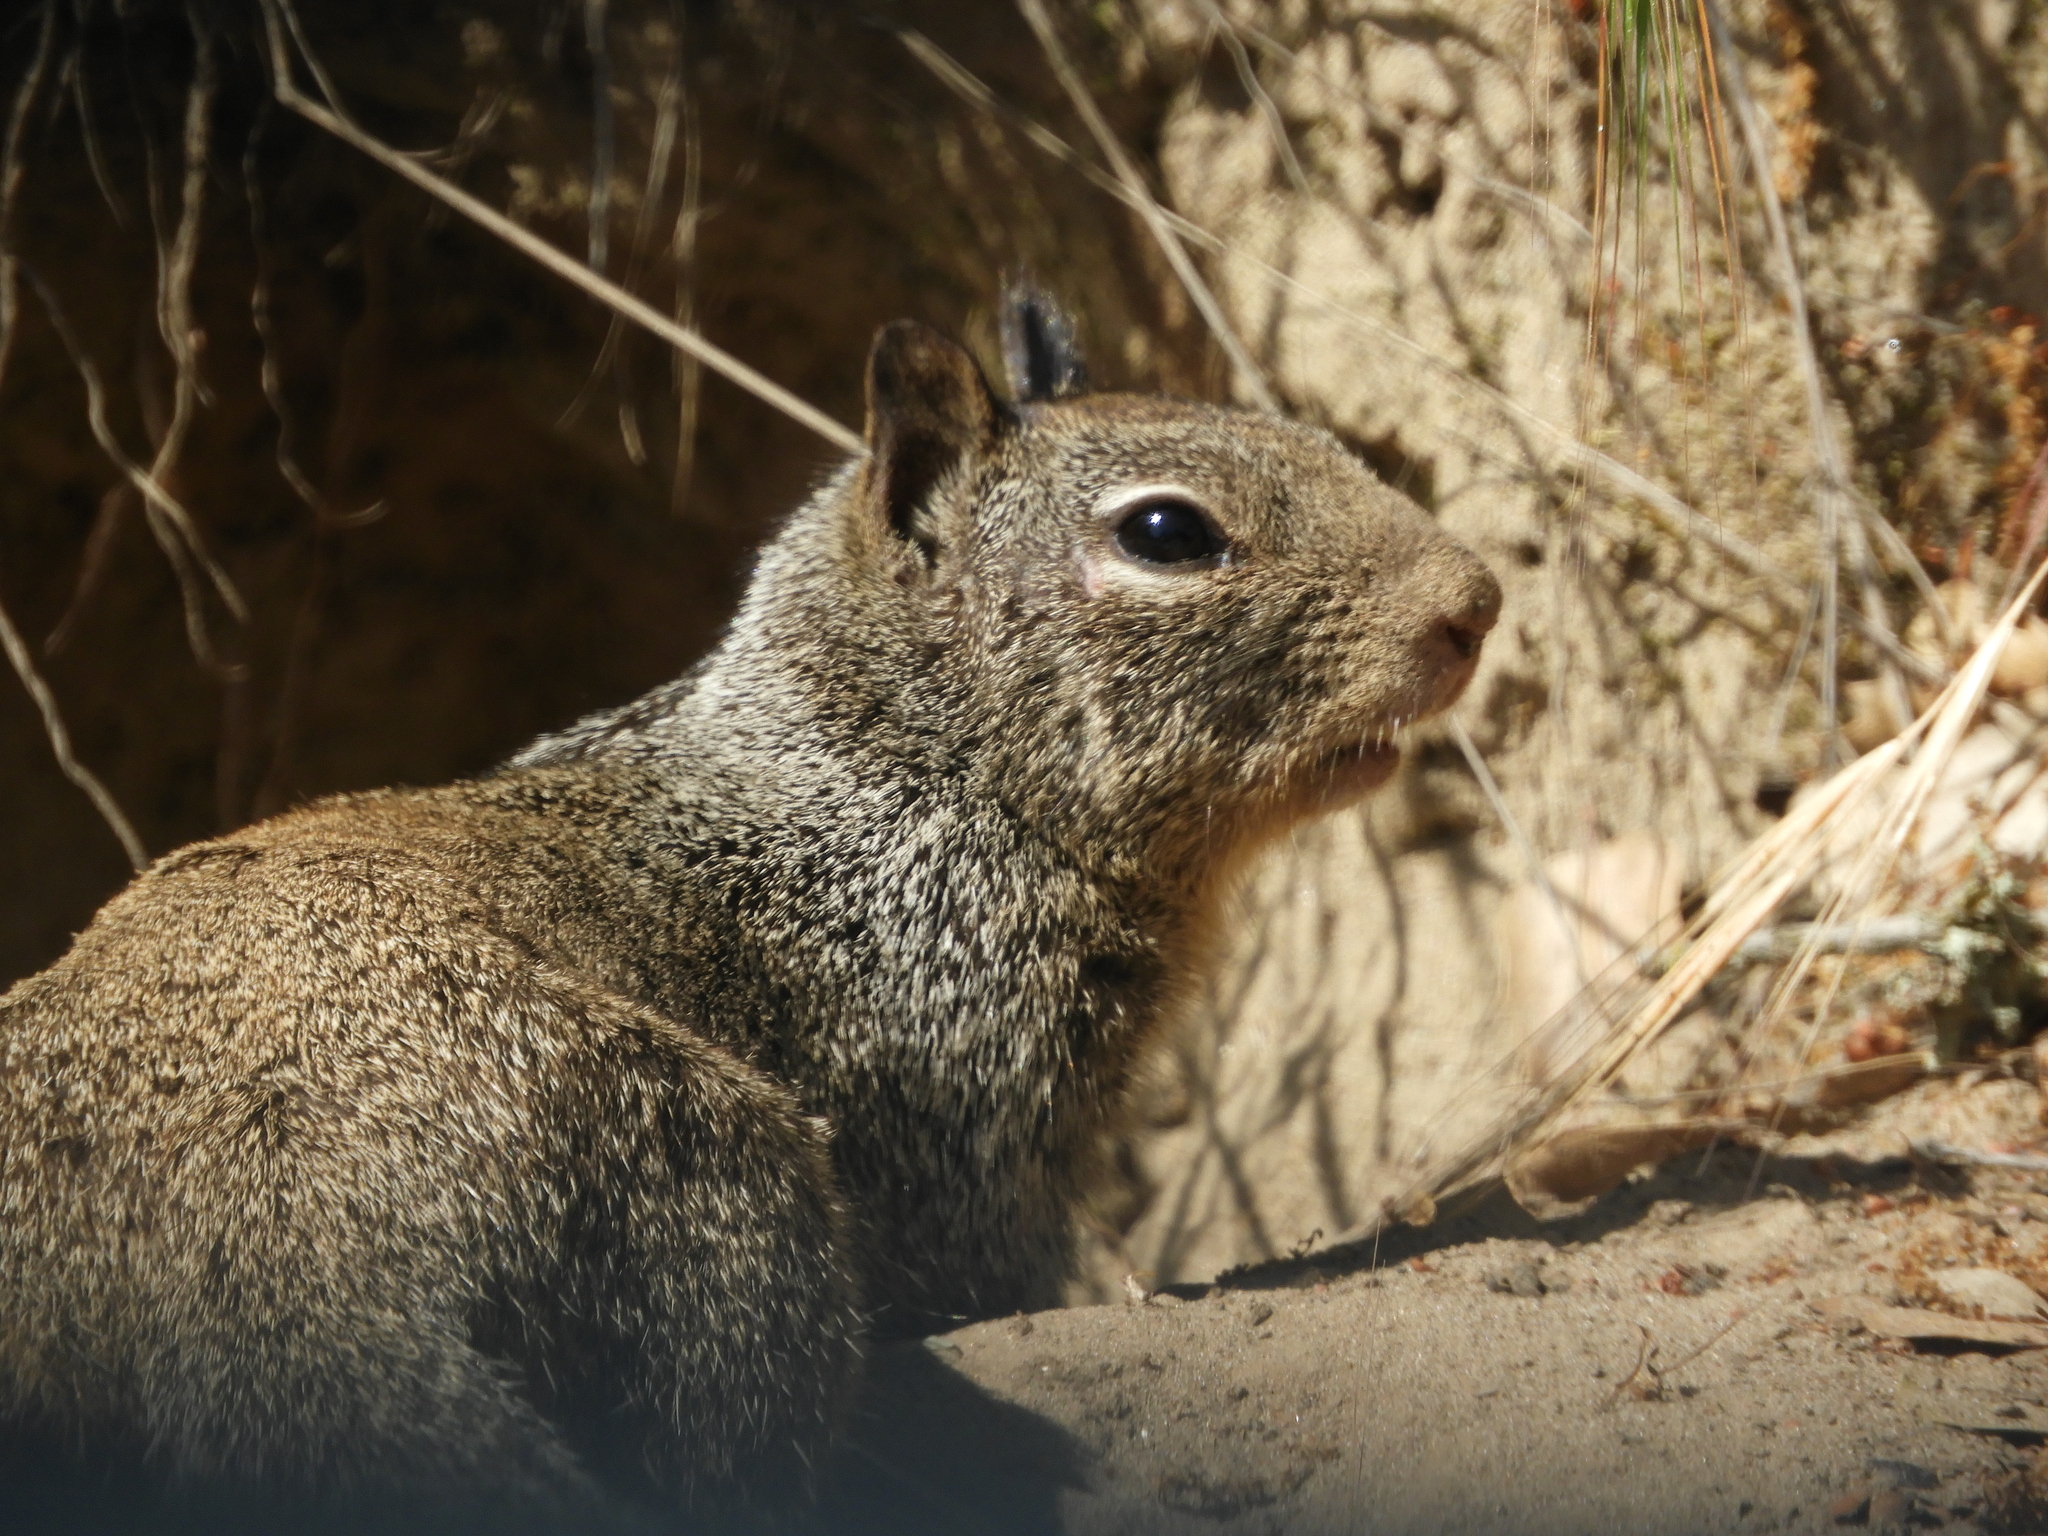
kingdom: Animalia
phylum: Chordata
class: Mammalia
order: Rodentia
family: Sciuridae
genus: Otospermophilus
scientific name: Otospermophilus beecheyi
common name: California ground squirrel
